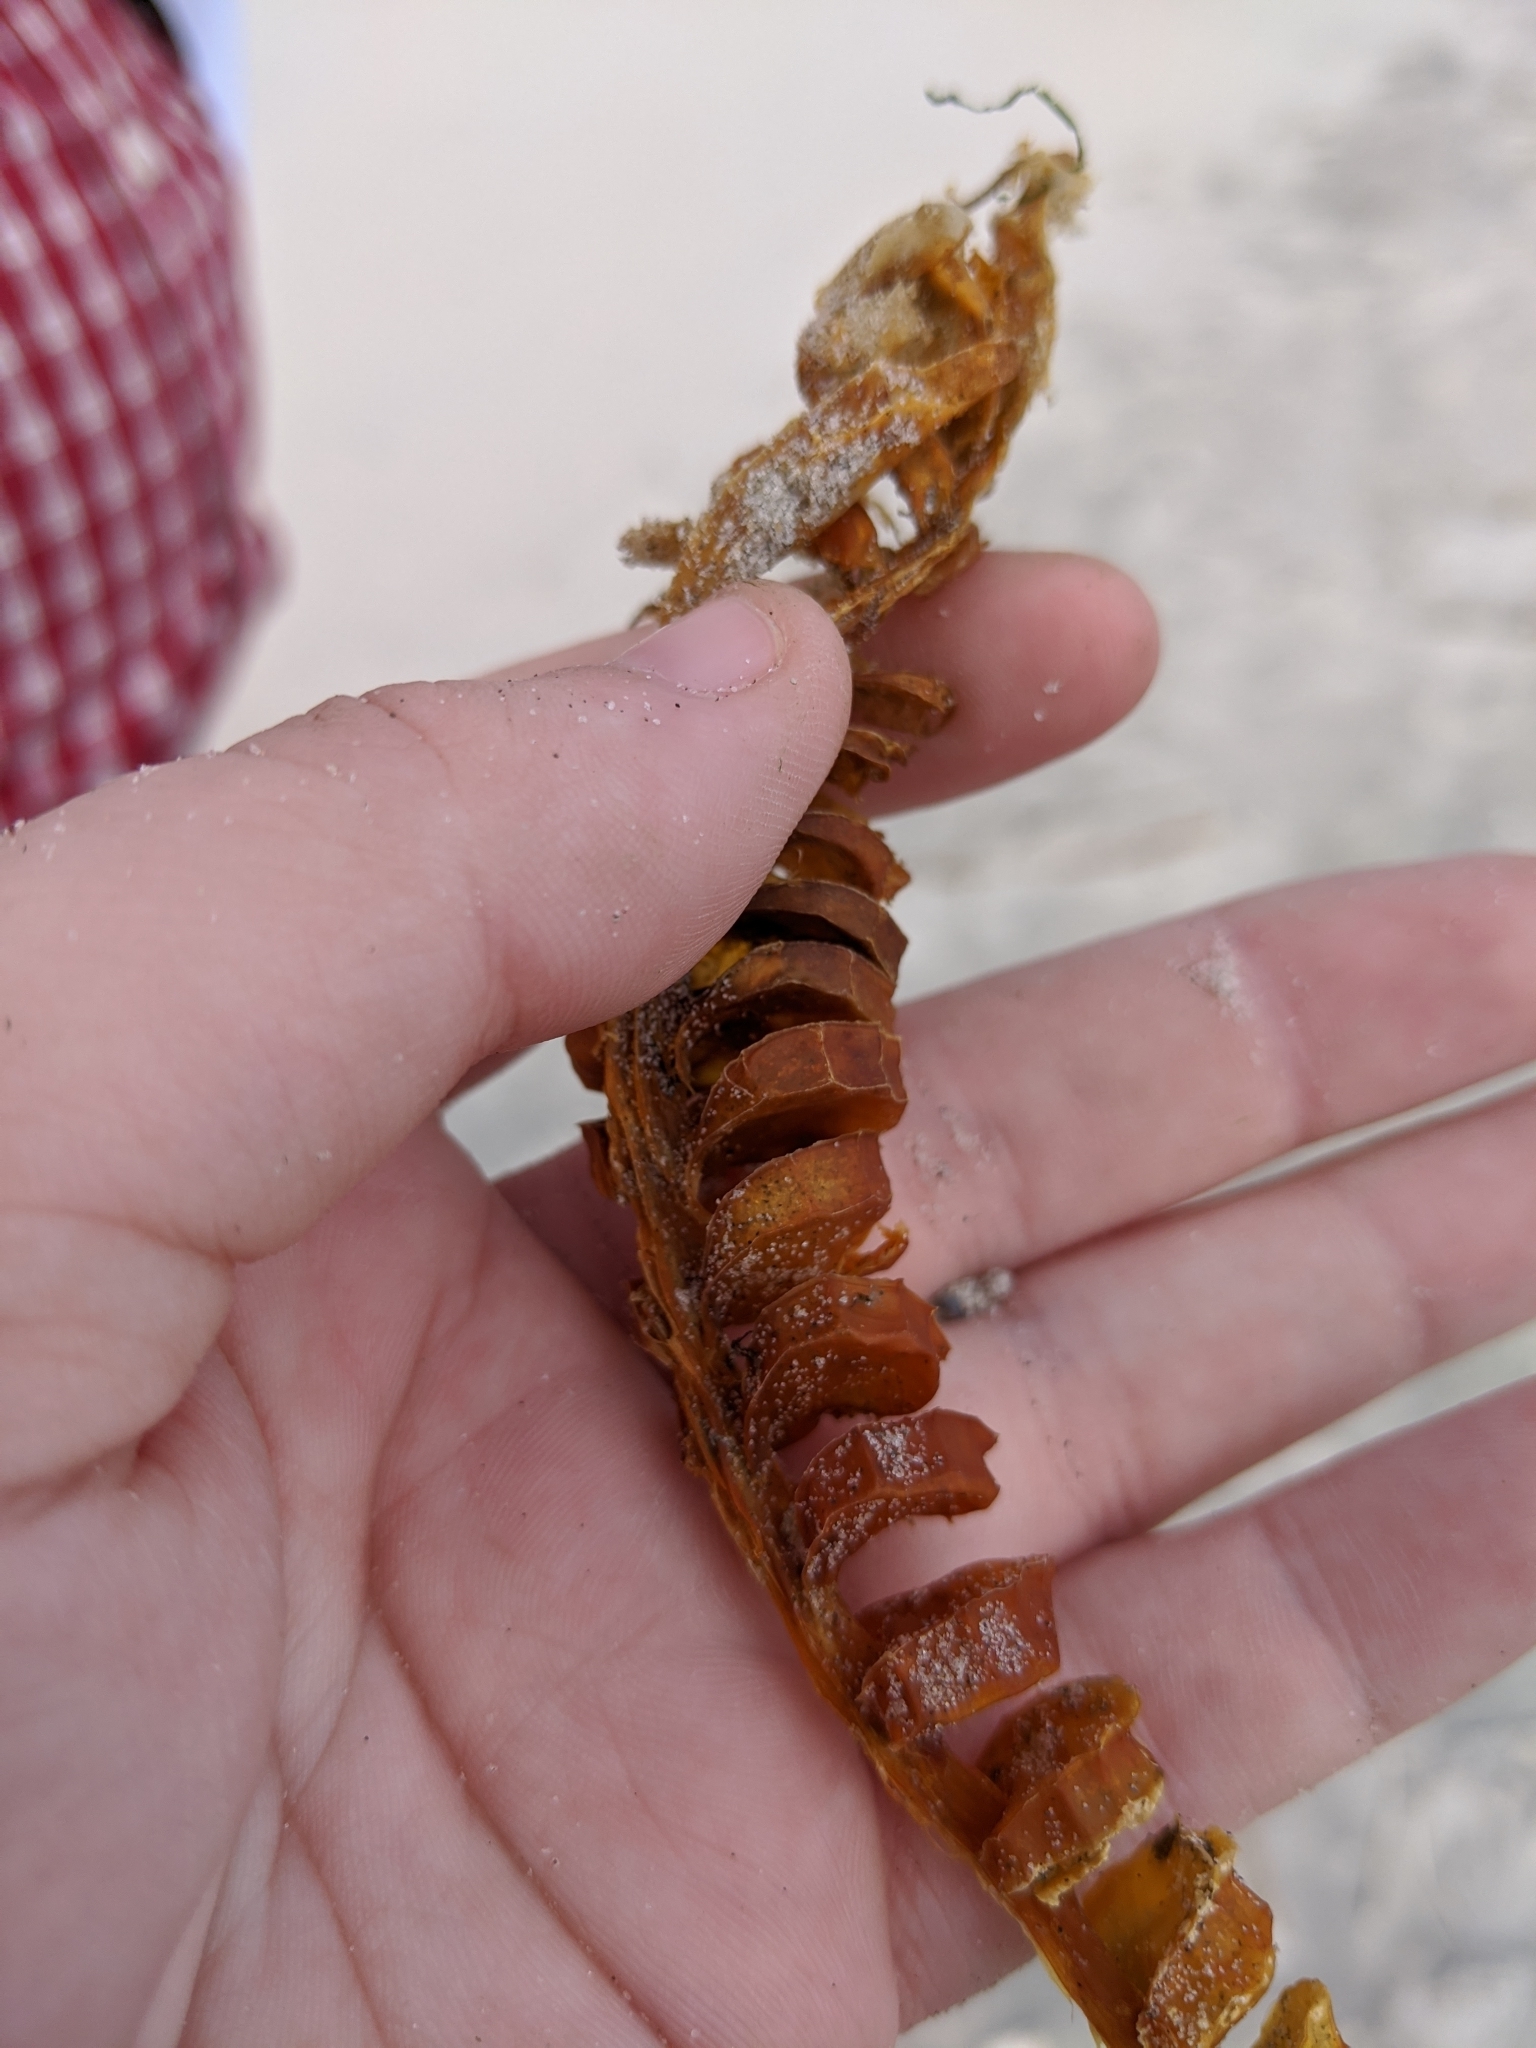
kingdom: Animalia
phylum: Mollusca
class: Gastropoda
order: Neogastropoda
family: Busyconidae
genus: Busycon
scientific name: Busycon carica
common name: Knobbed whelk
